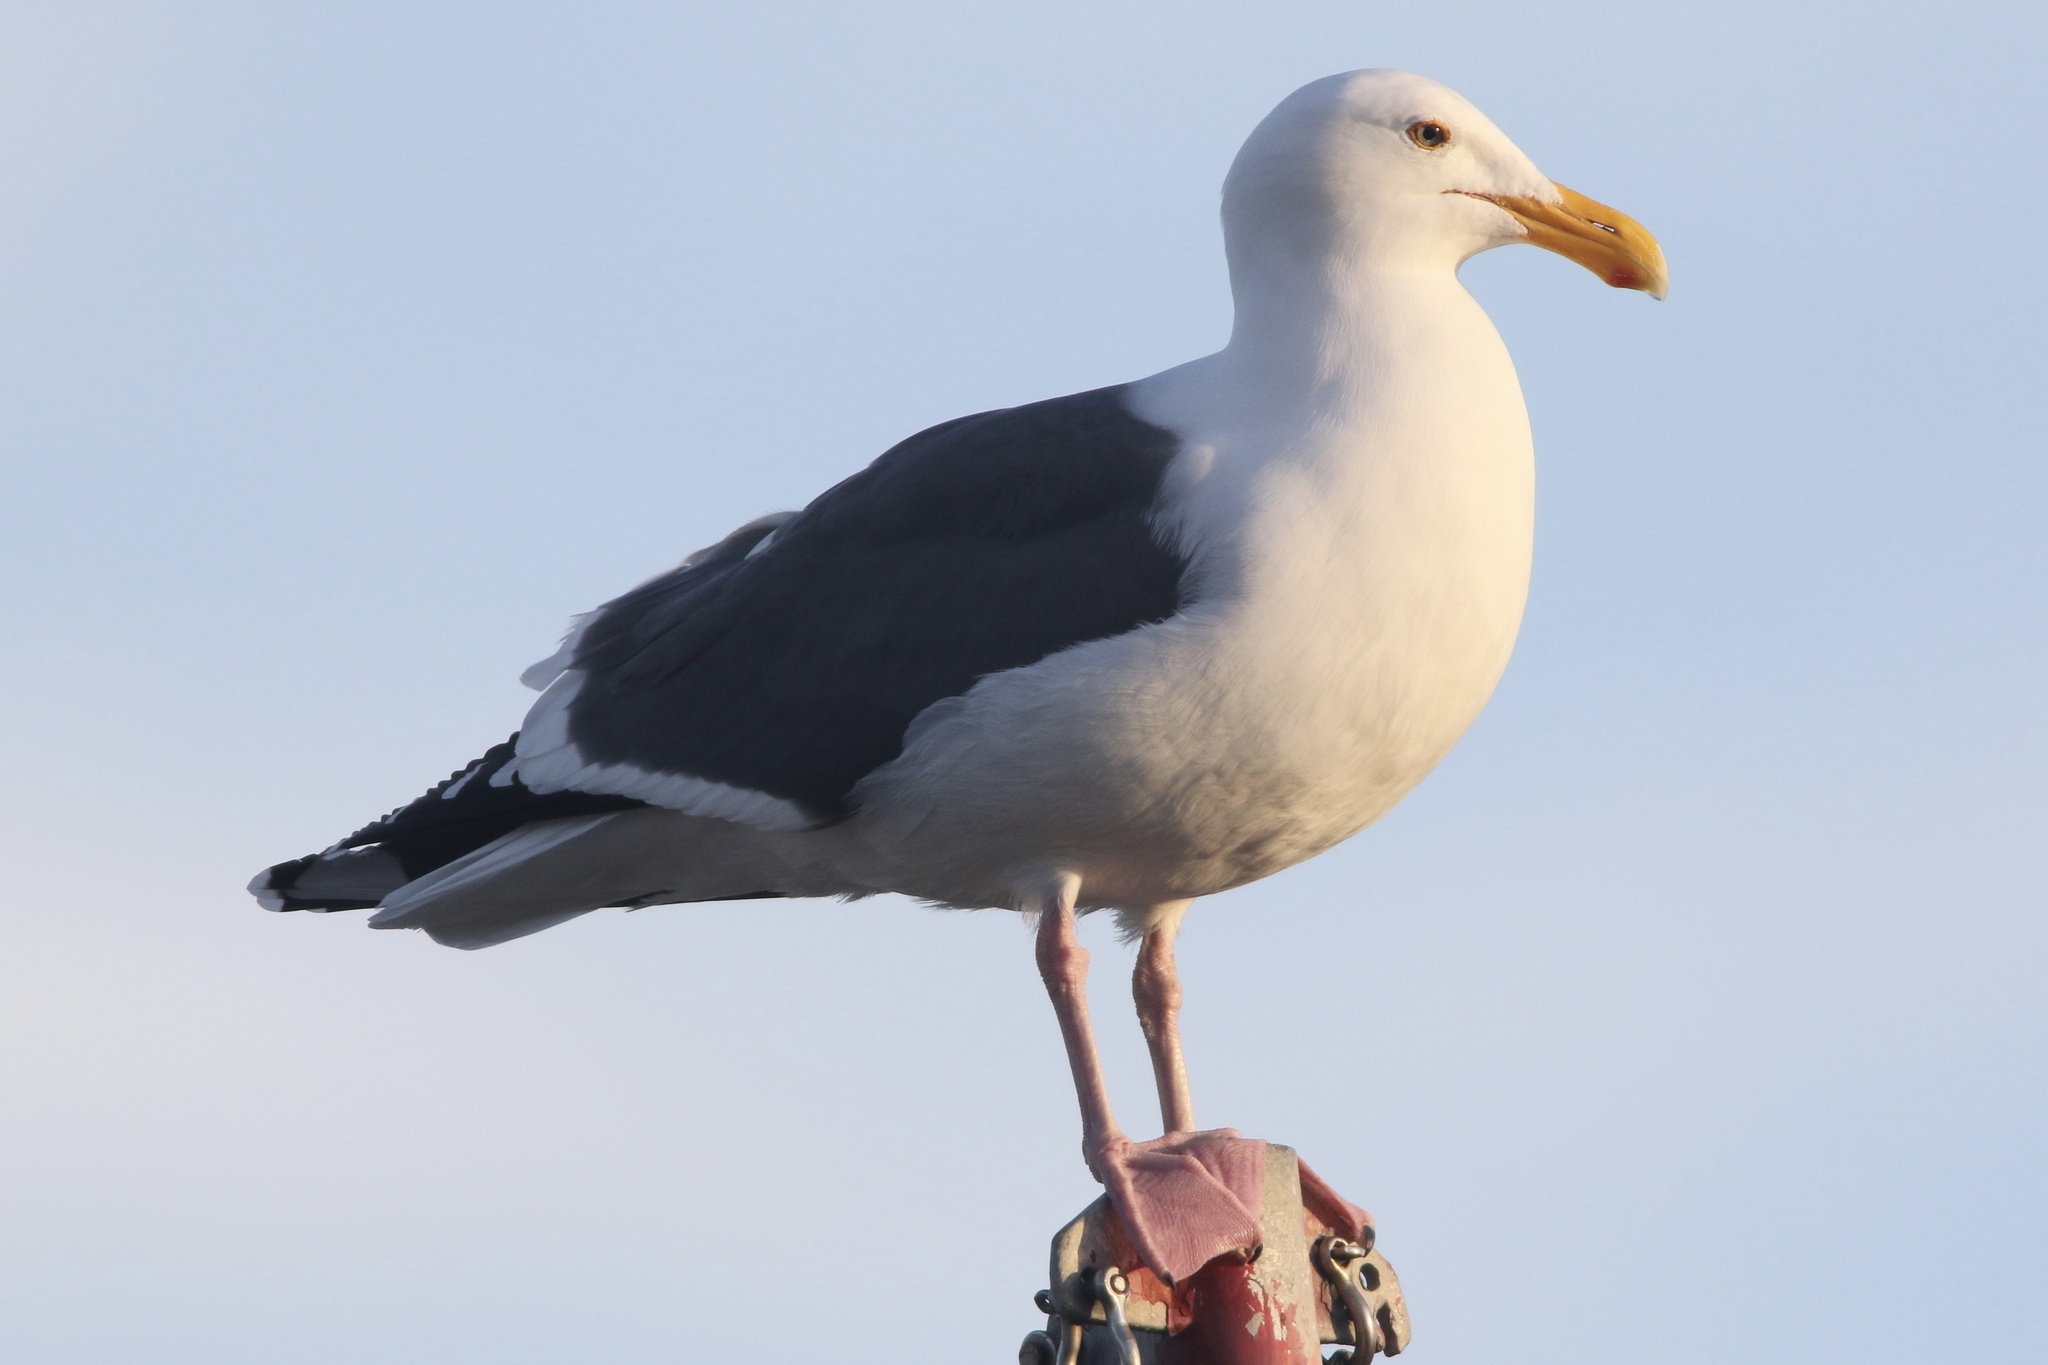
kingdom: Animalia
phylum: Chordata
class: Aves
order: Charadriiformes
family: Laridae
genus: Larus
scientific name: Larus occidentalis
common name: Western gull
